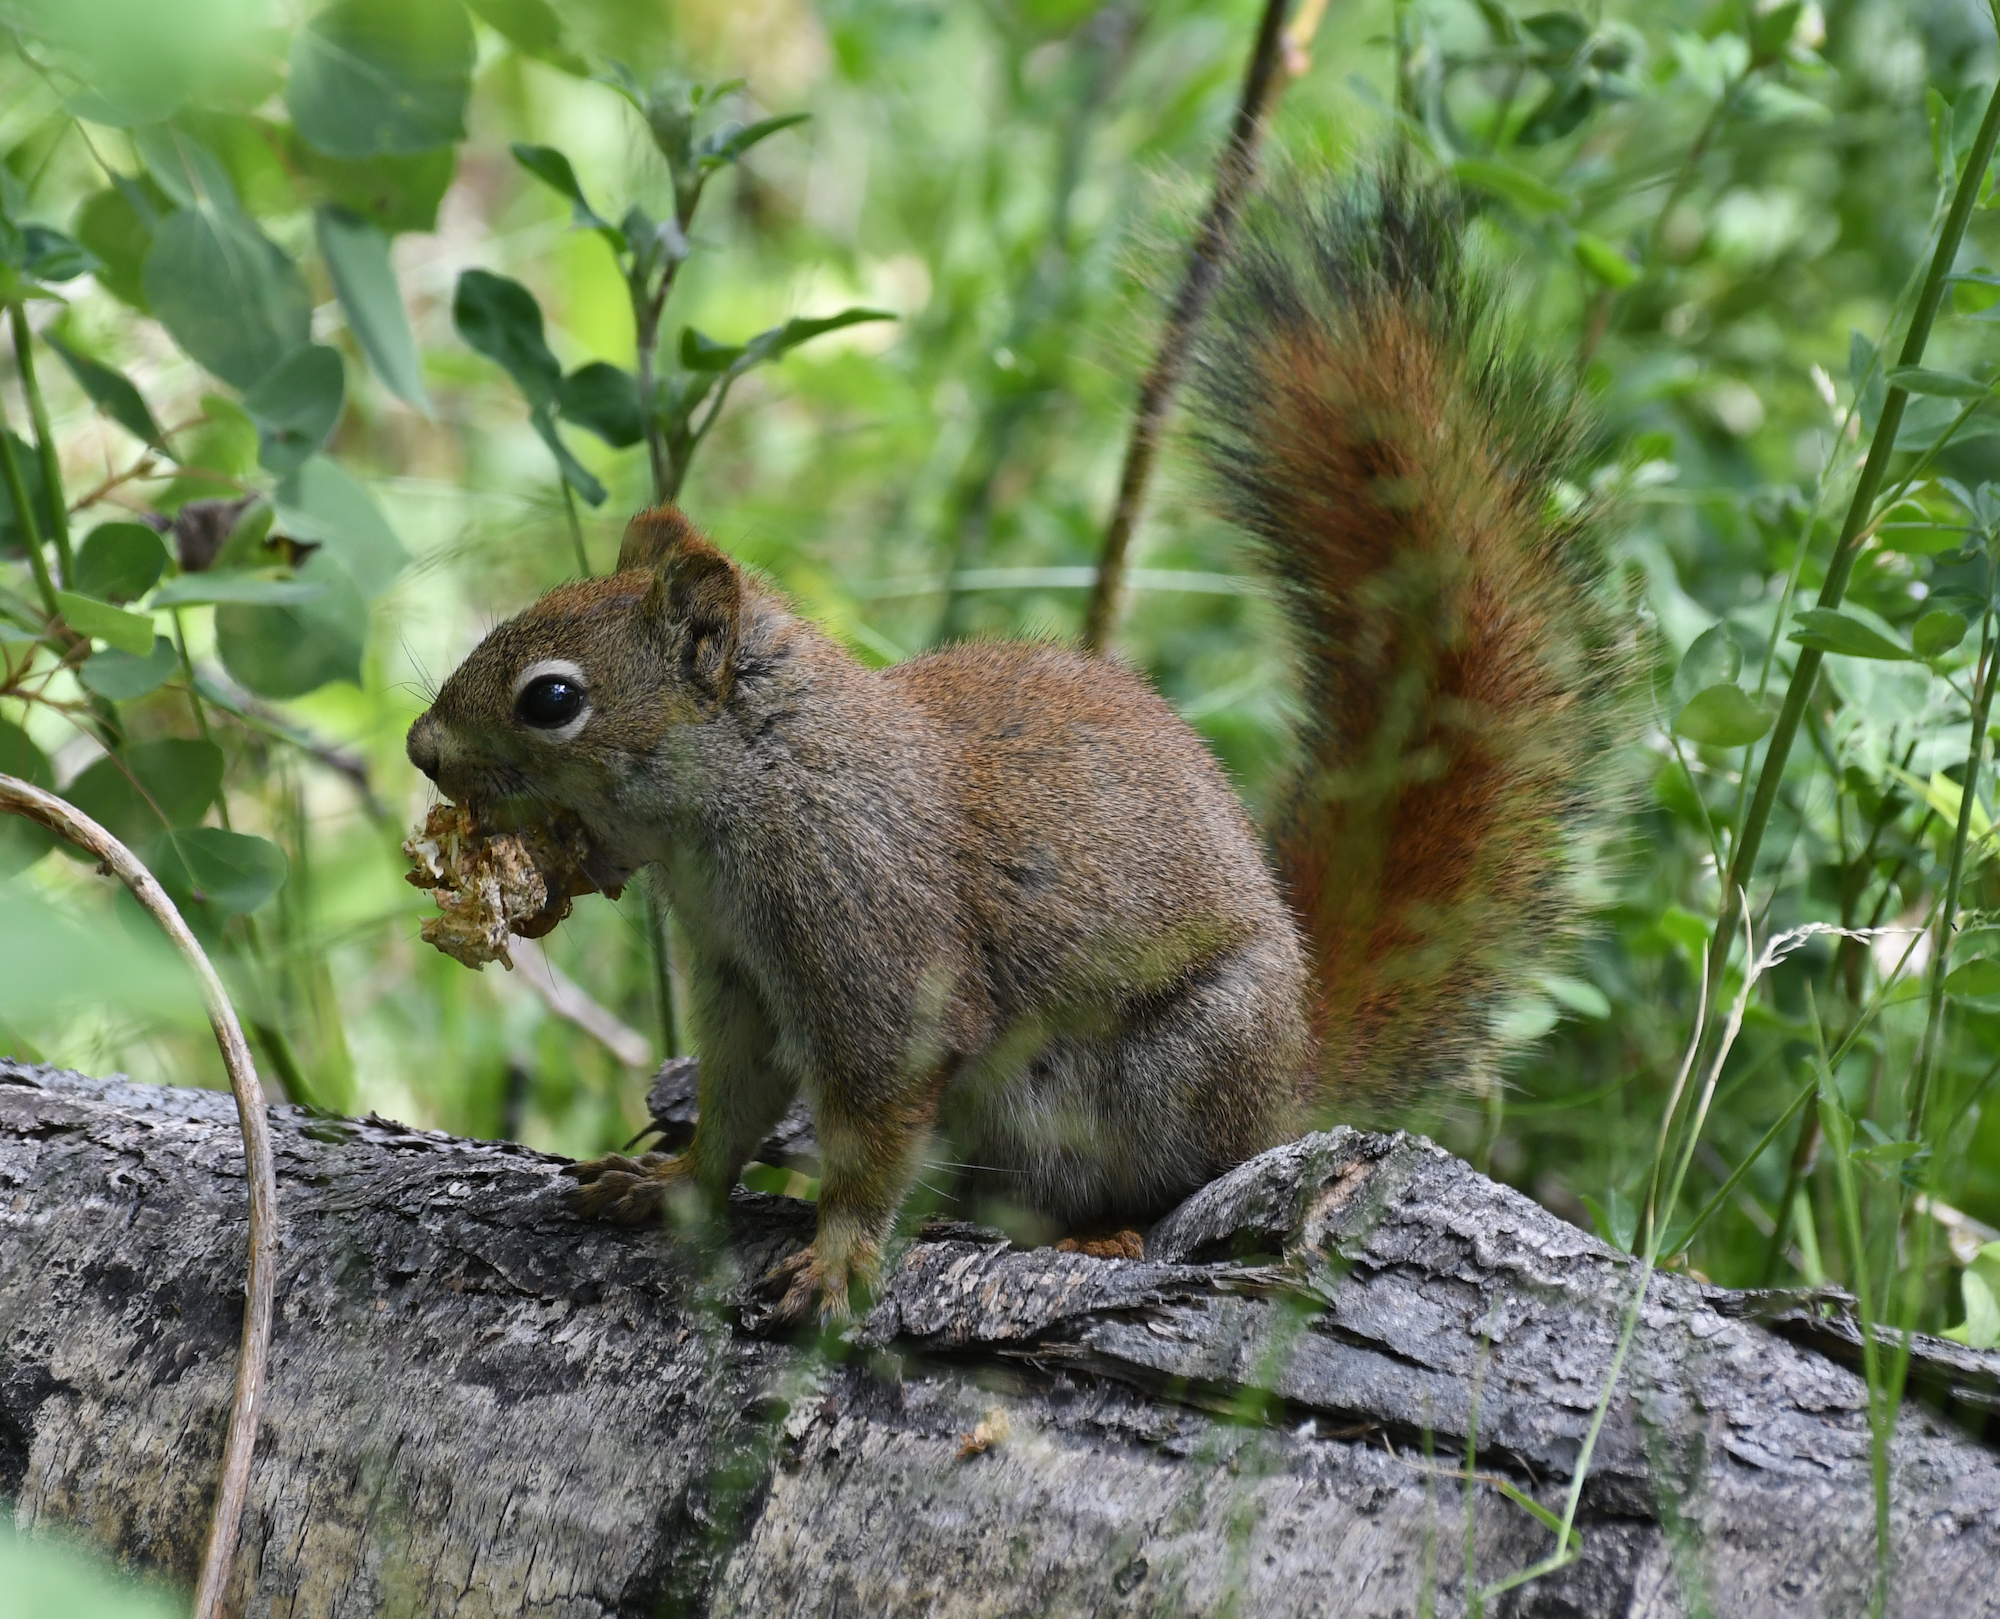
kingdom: Animalia
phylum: Chordata
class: Mammalia
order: Rodentia
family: Sciuridae
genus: Tamiasciurus
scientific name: Tamiasciurus hudsonicus
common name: Red squirrel
